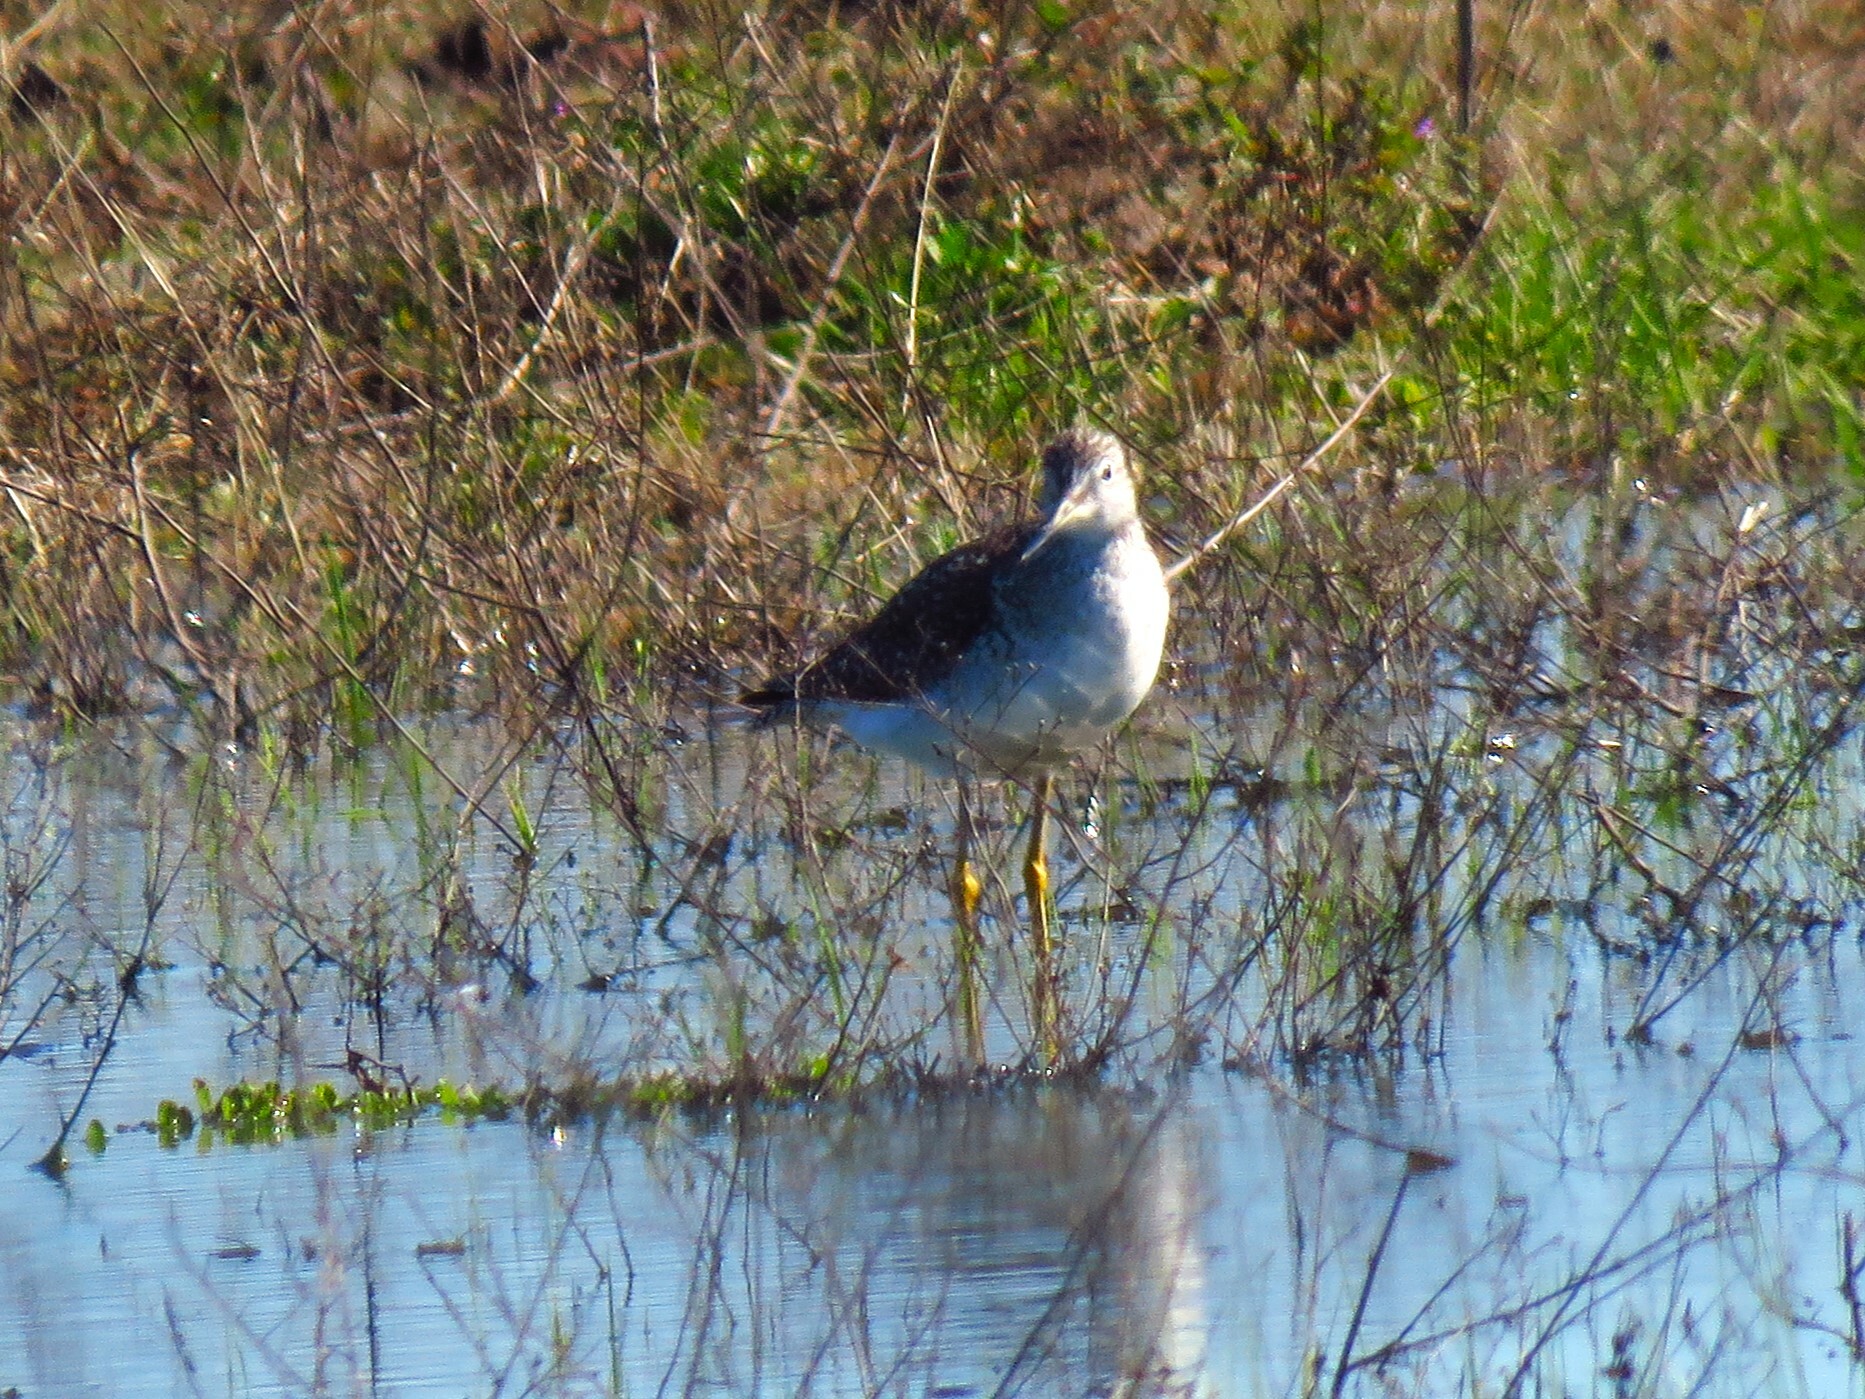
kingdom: Animalia
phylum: Chordata
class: Aves
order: Charadriiformes
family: Scolopacidae
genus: Tringa
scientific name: Tringa melanoleuca
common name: Greater yellowlegs
